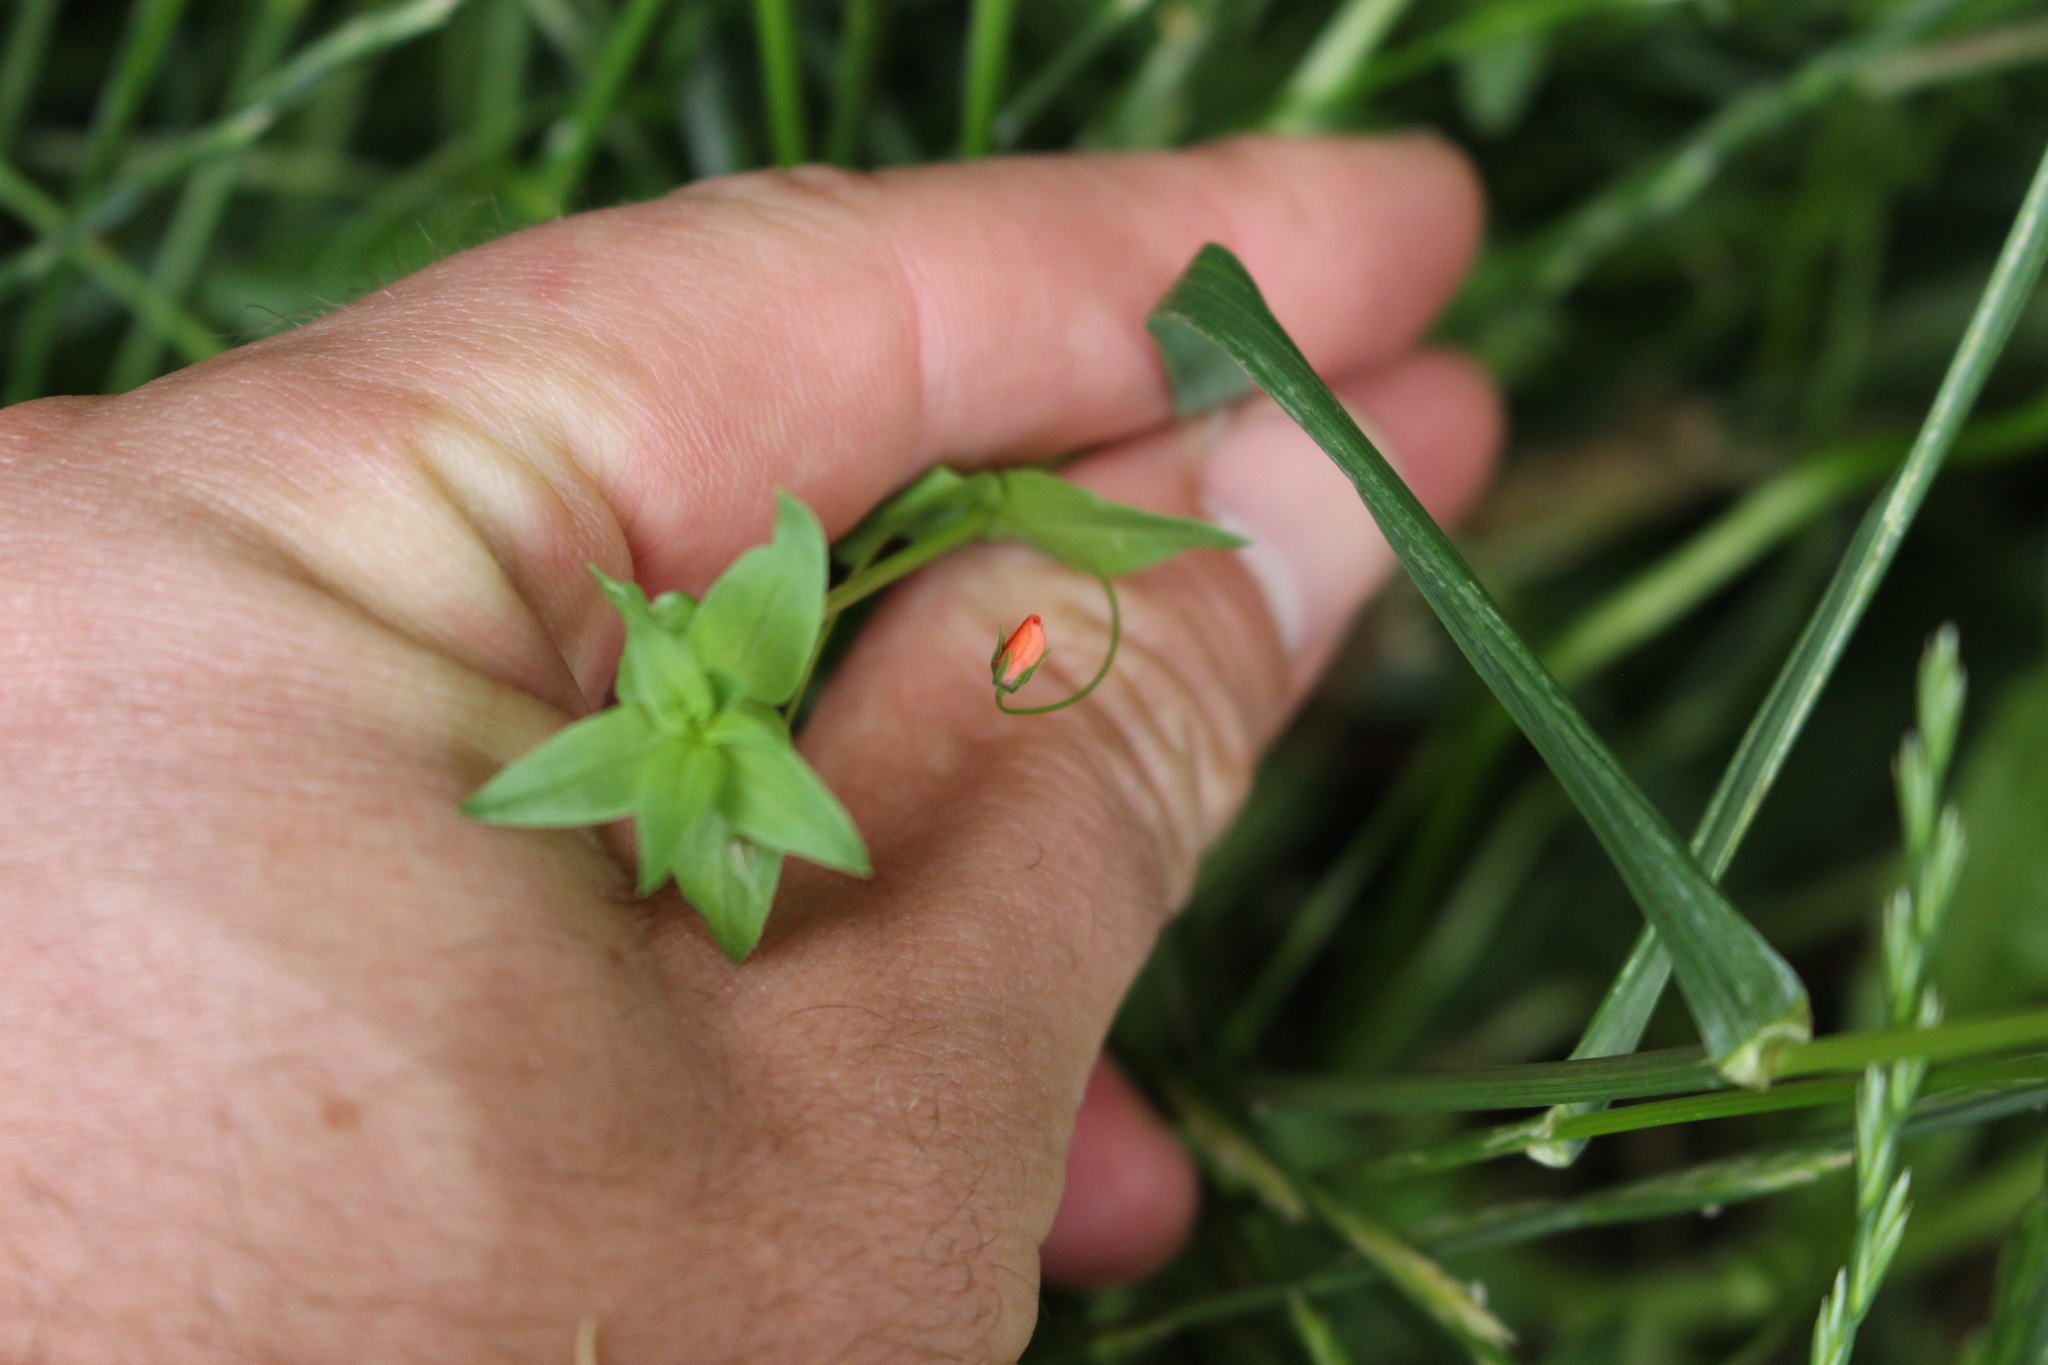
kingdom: Plantae
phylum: Tracheophyta
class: Magnoliopsida
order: Ericales
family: Primulaceae
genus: Lysimachia
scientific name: Lysimachia arvensis
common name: Scarlet pimpernel
